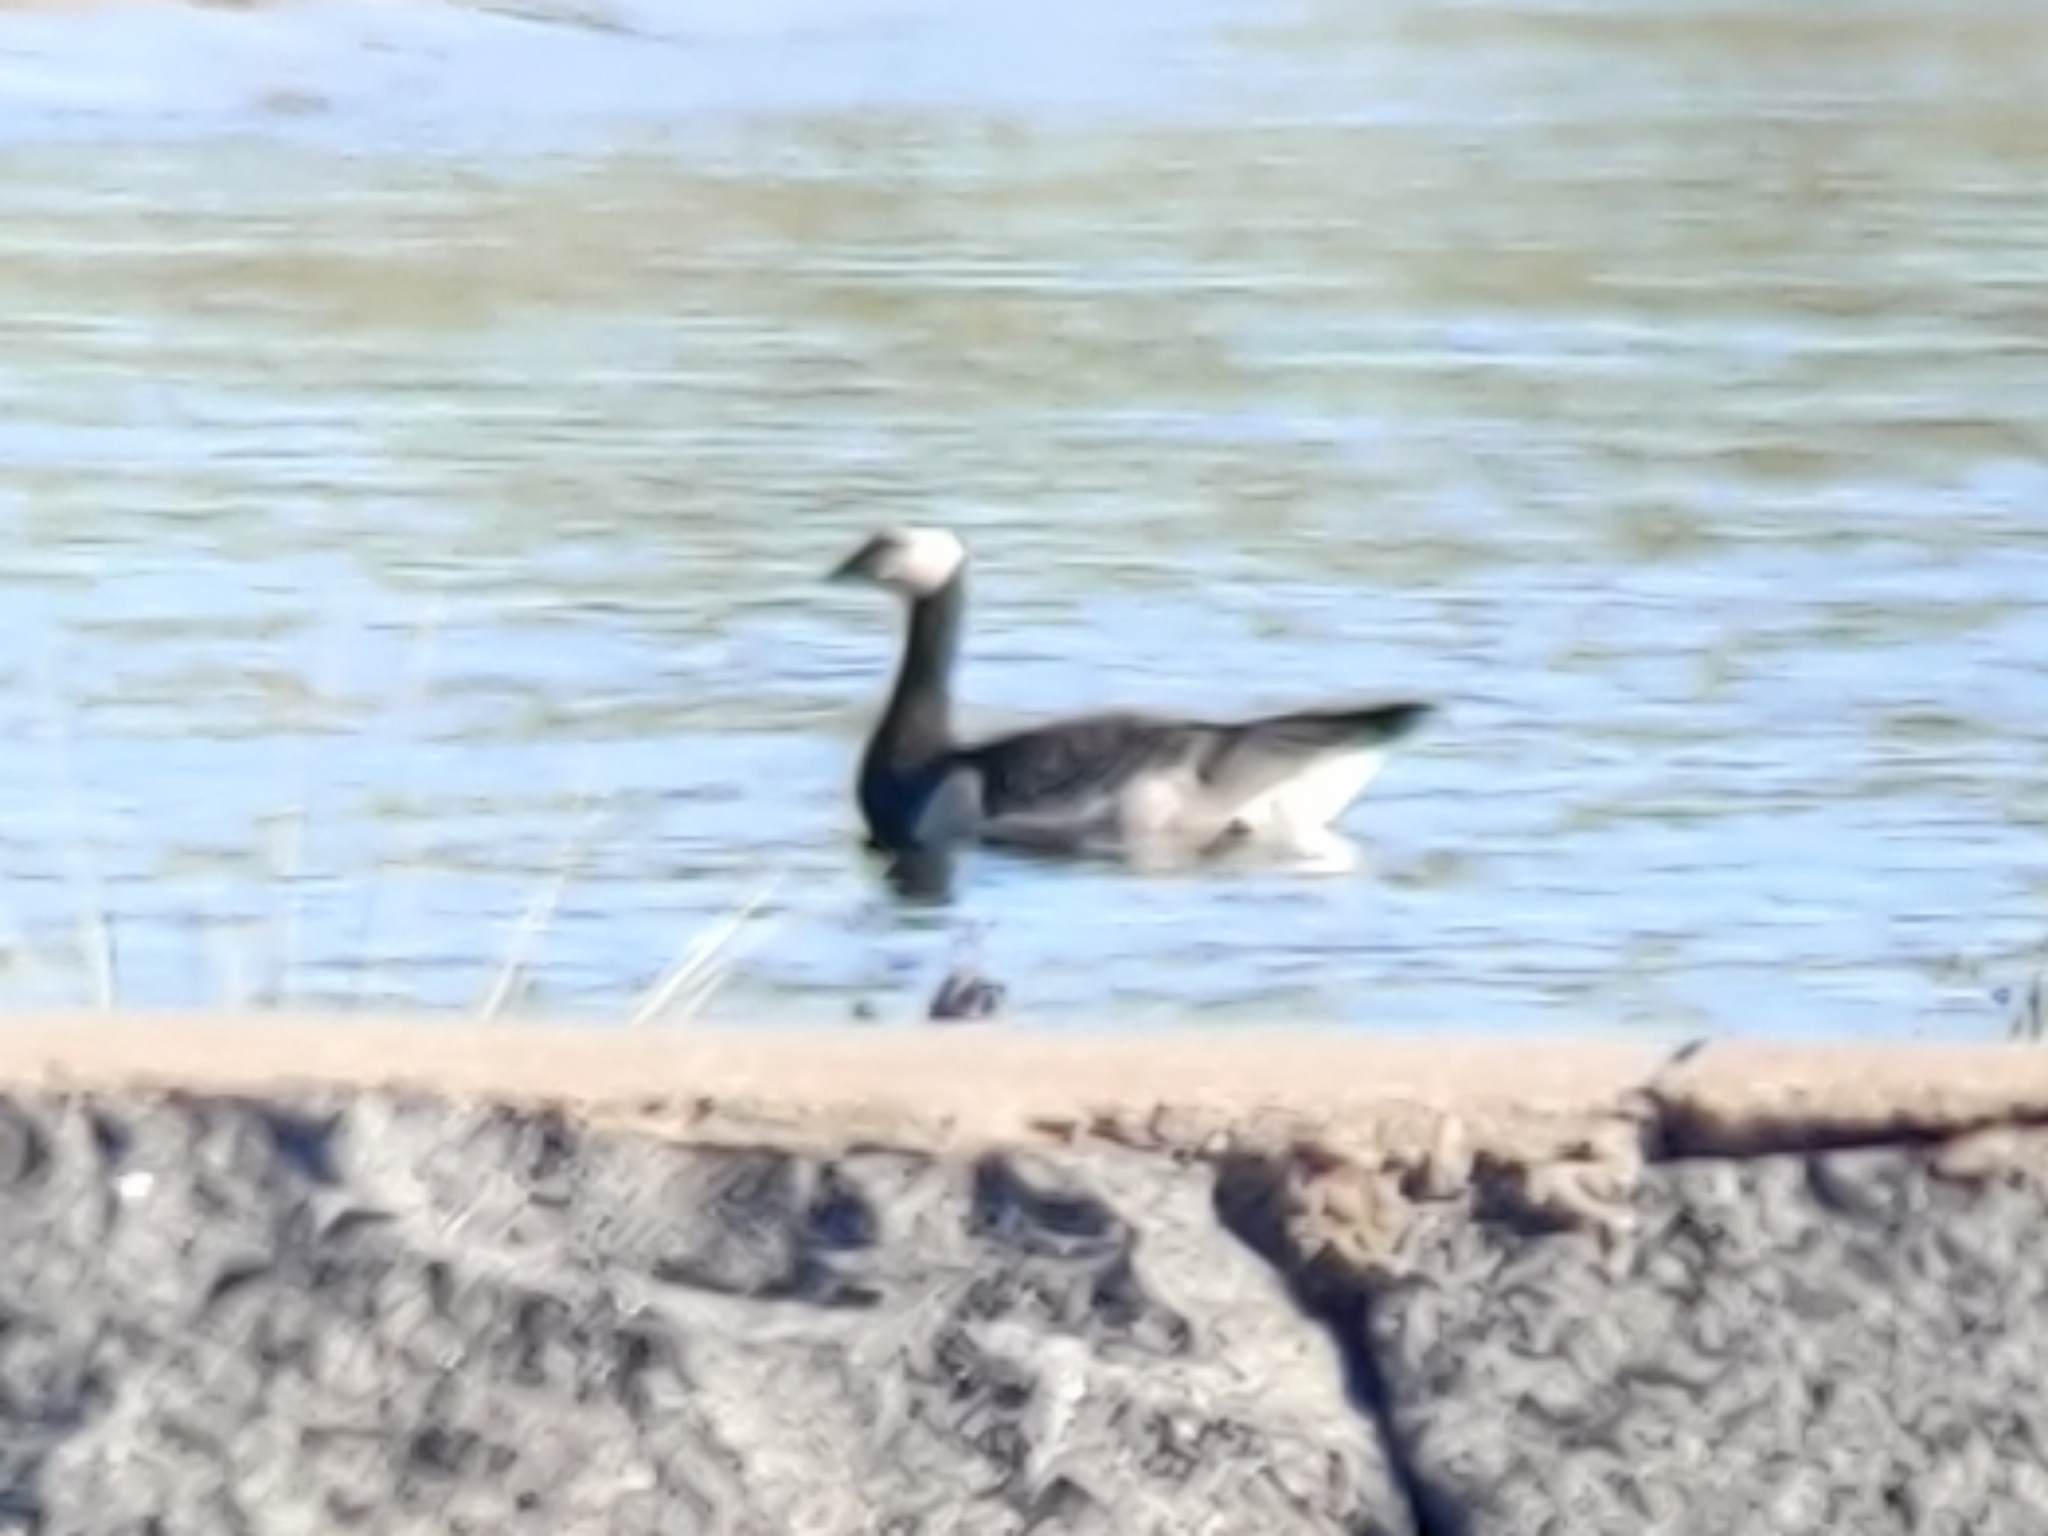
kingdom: Animalia
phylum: Chordata
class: Aves
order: Anseriformes
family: Anatidae
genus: Branta
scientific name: Branta leucopsis
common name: Barnacle goose
